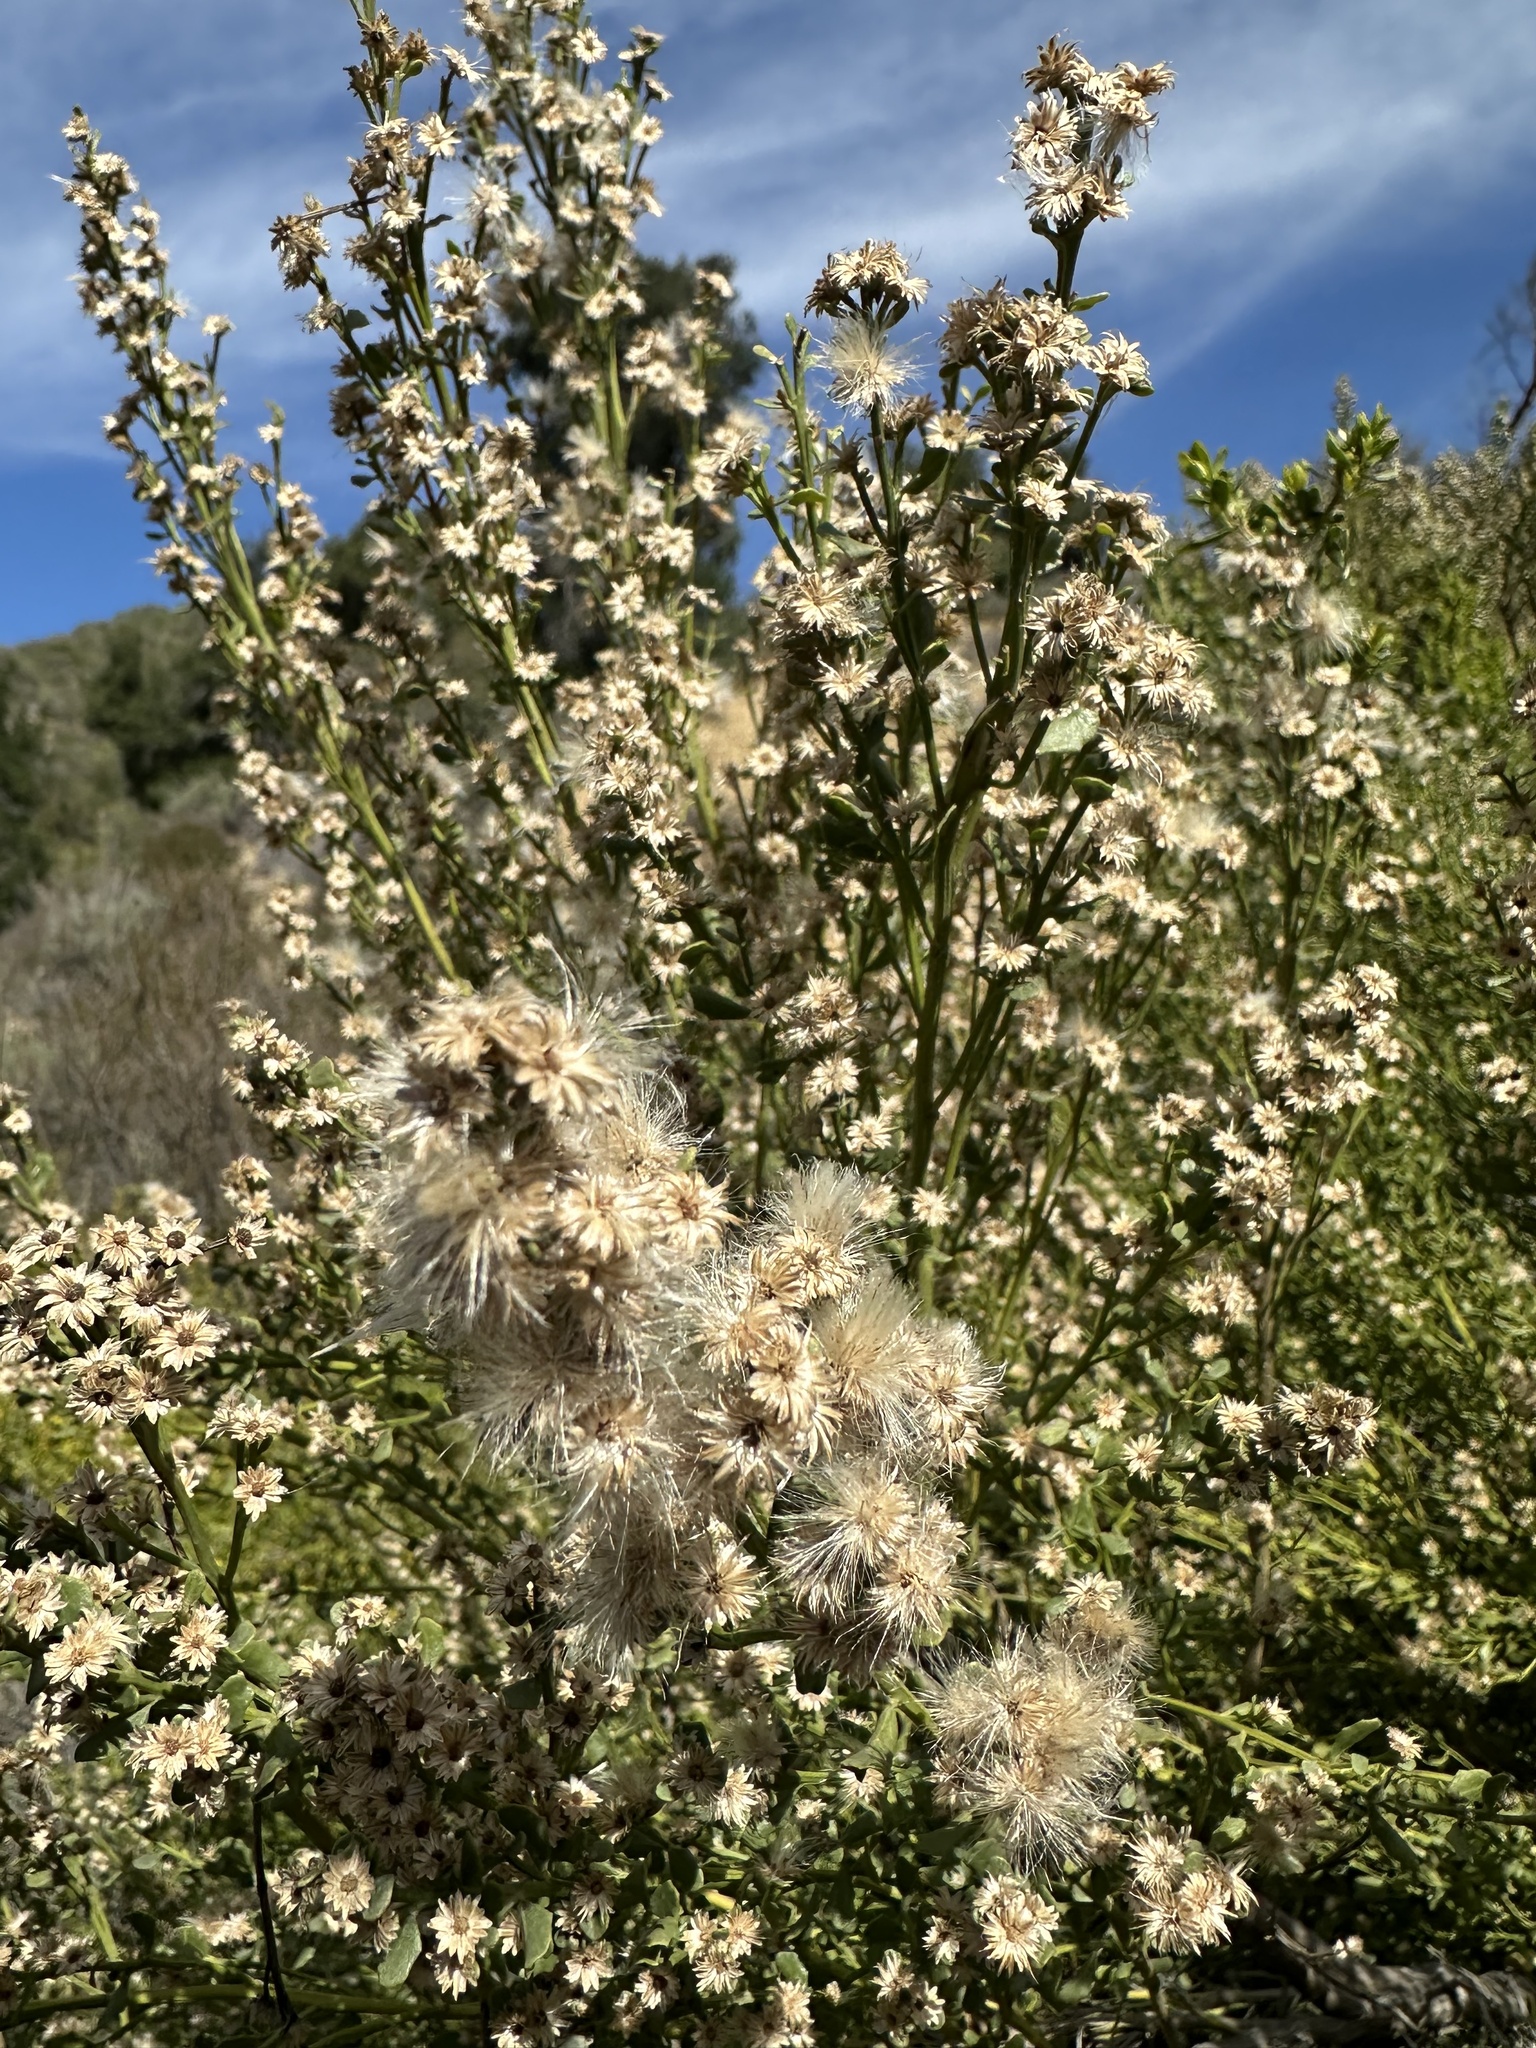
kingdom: Plantae
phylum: Tracheophyta
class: Magnoliopsida
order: Asterales
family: Asteraceae
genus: Baccharis
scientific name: Baccharis pilularis
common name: Coyotebrush
